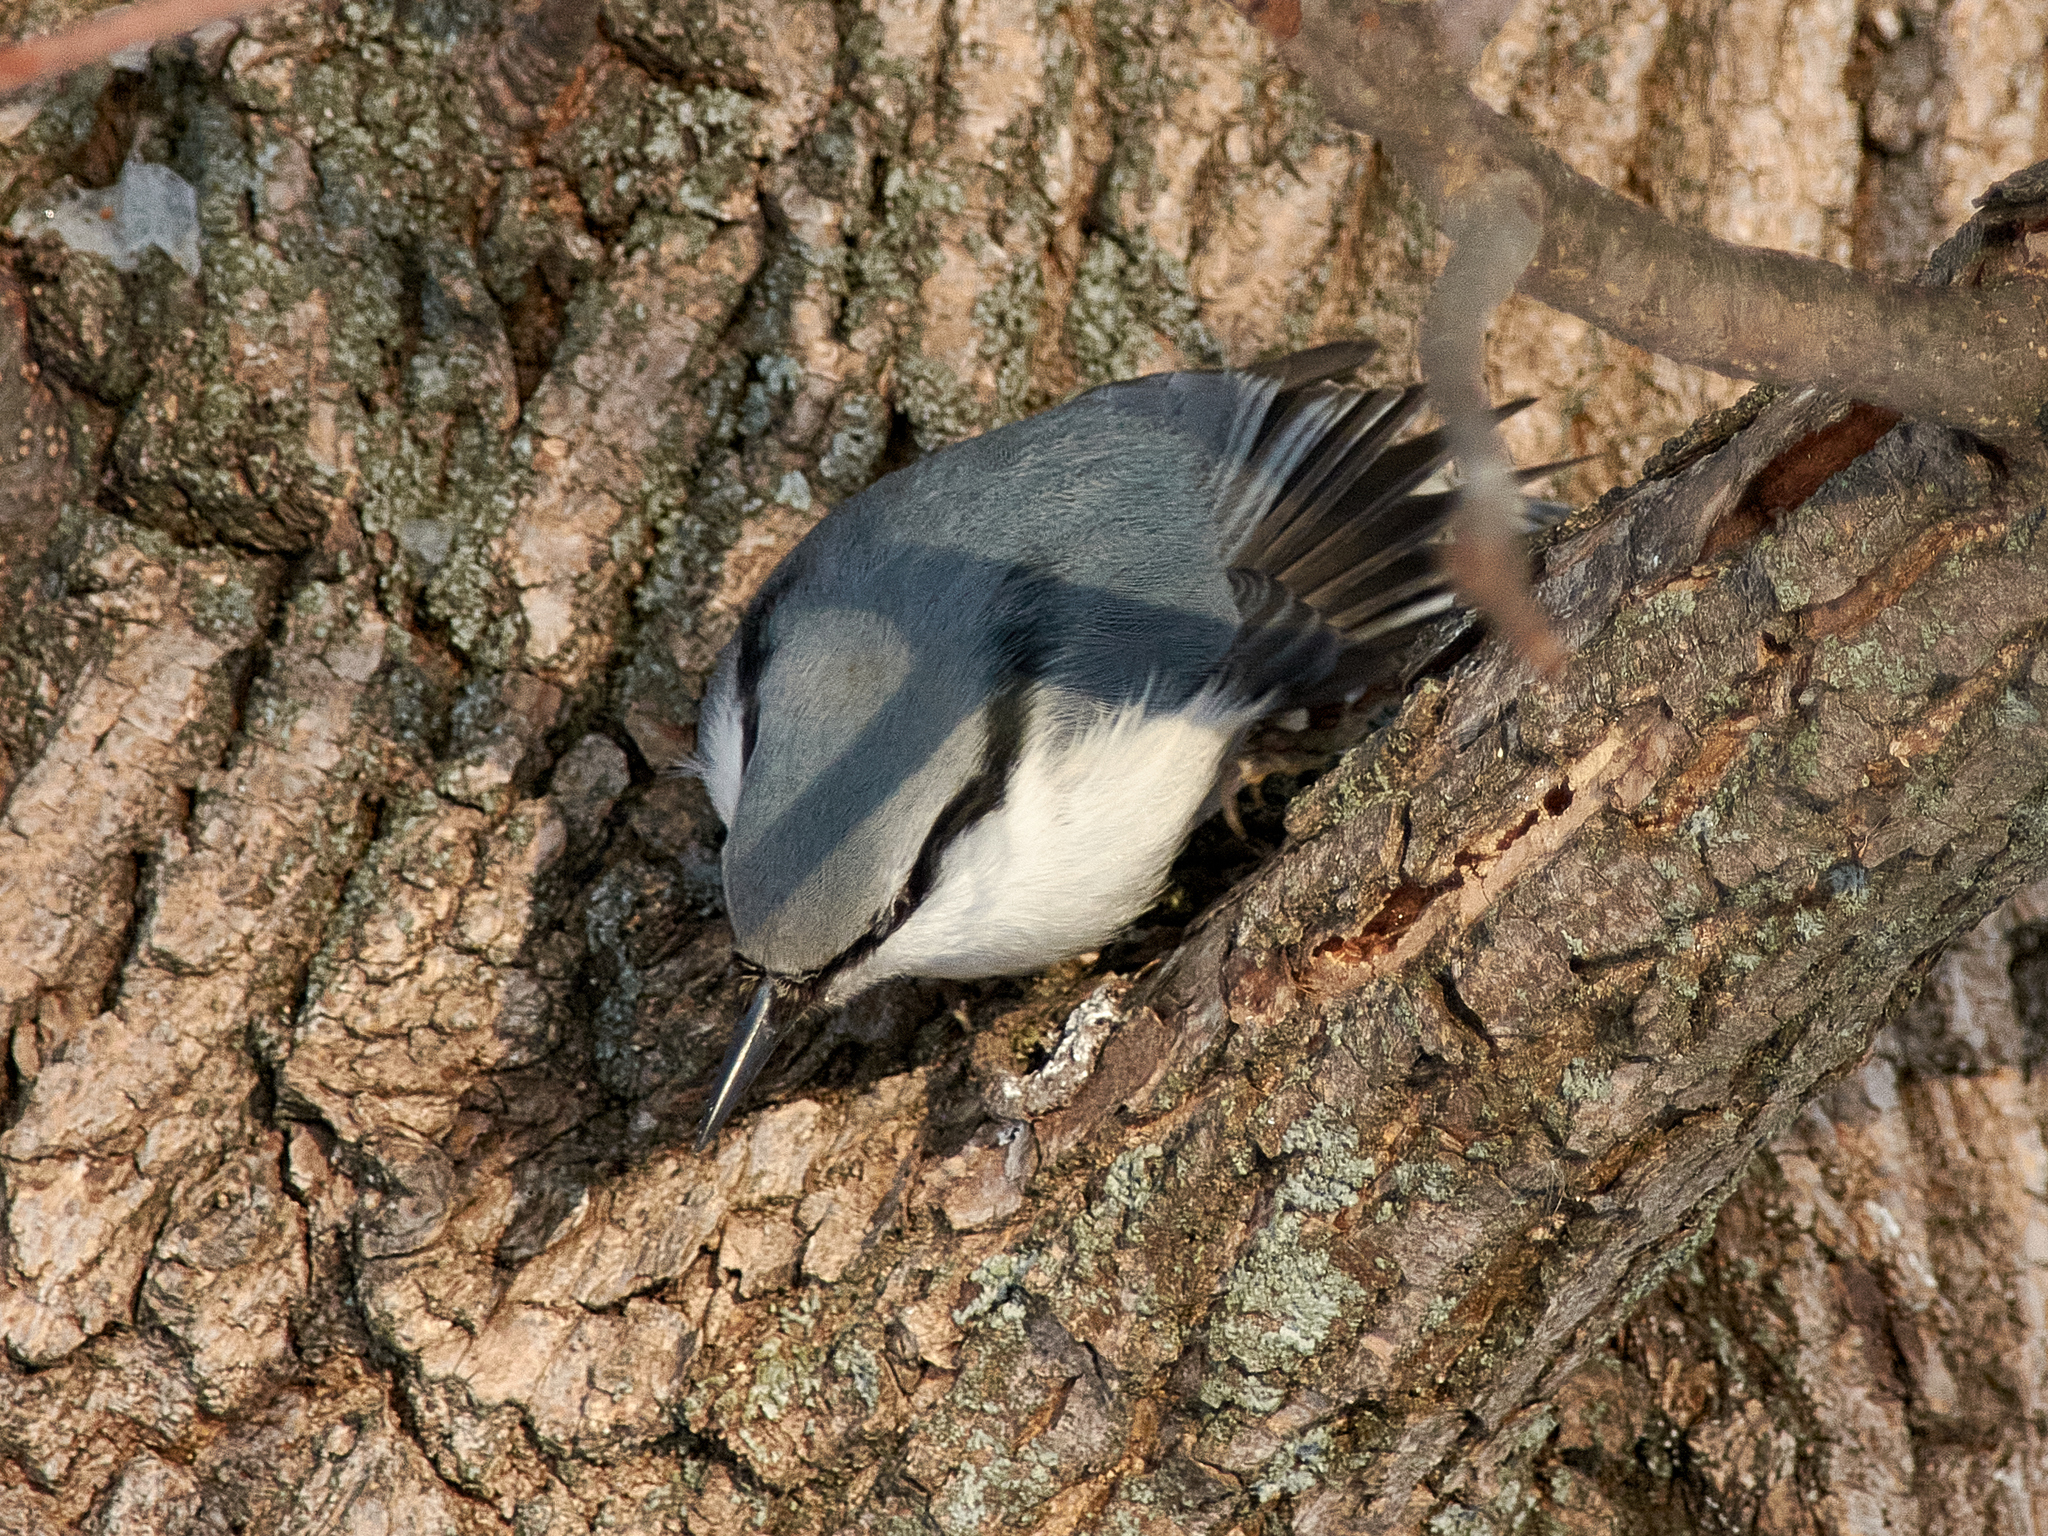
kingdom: Animalia
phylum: Chordata
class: Aves
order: Passeriformes
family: Sittidae
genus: Sitta
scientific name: Sitta europaea
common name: Eurasian nuthatch
